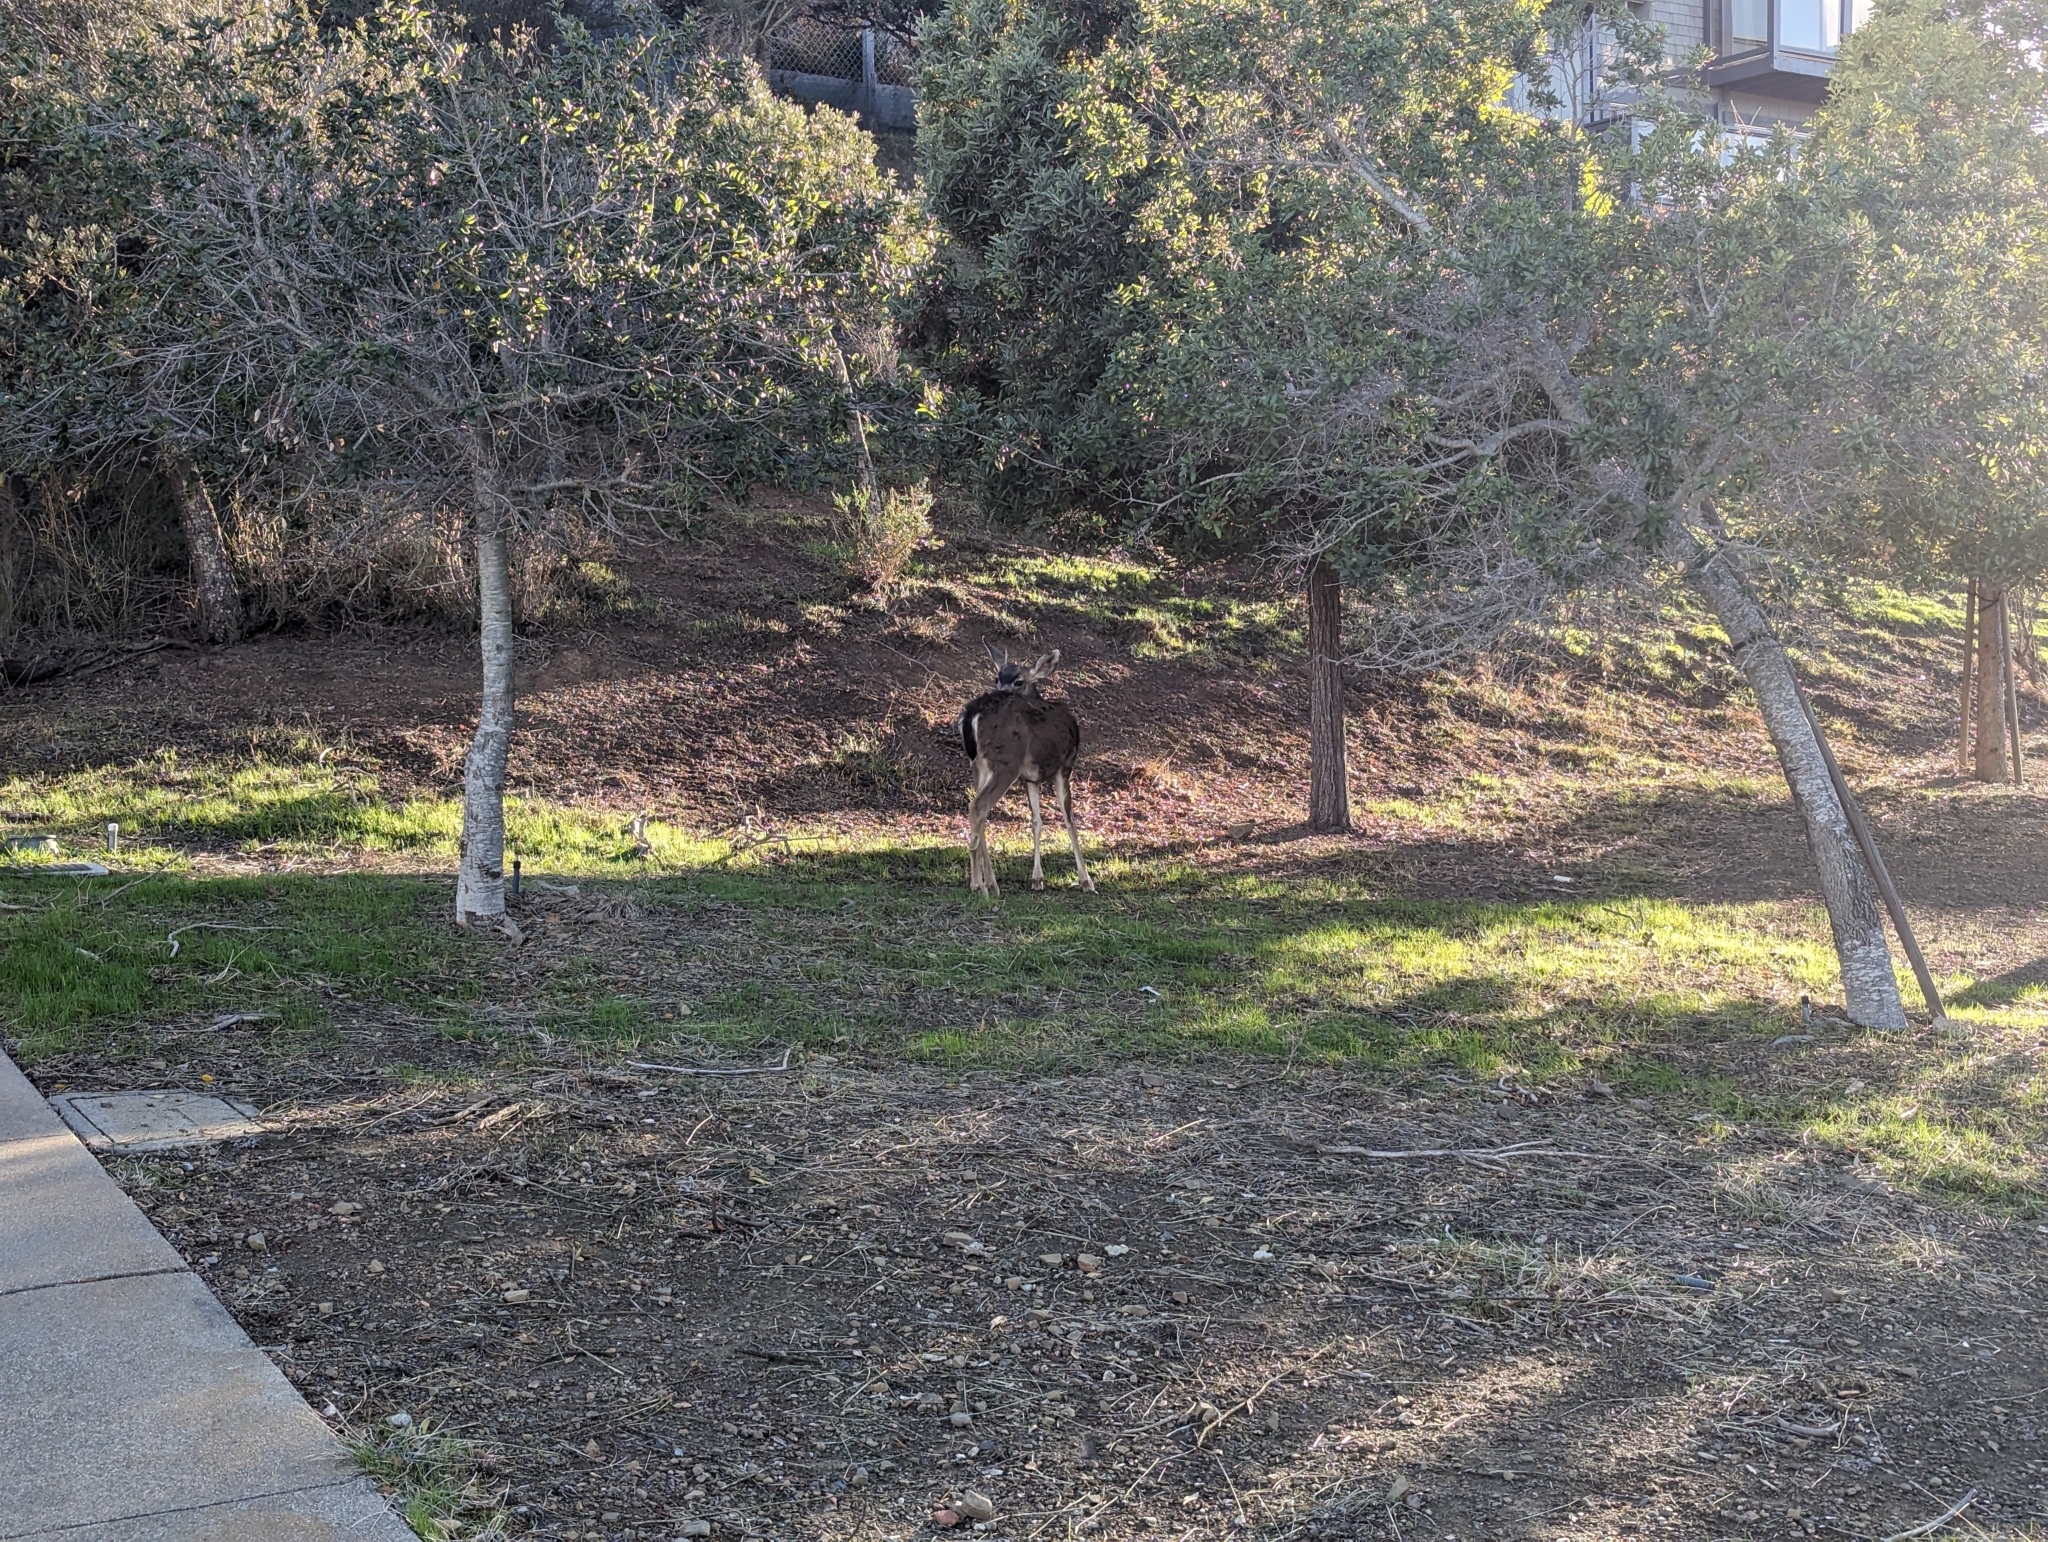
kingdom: Animalia
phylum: Chordata
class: Mammalia
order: Artiodactyla
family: Cervidae
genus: Odocoileus
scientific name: Odocoileus hemionus
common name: Mule deer
